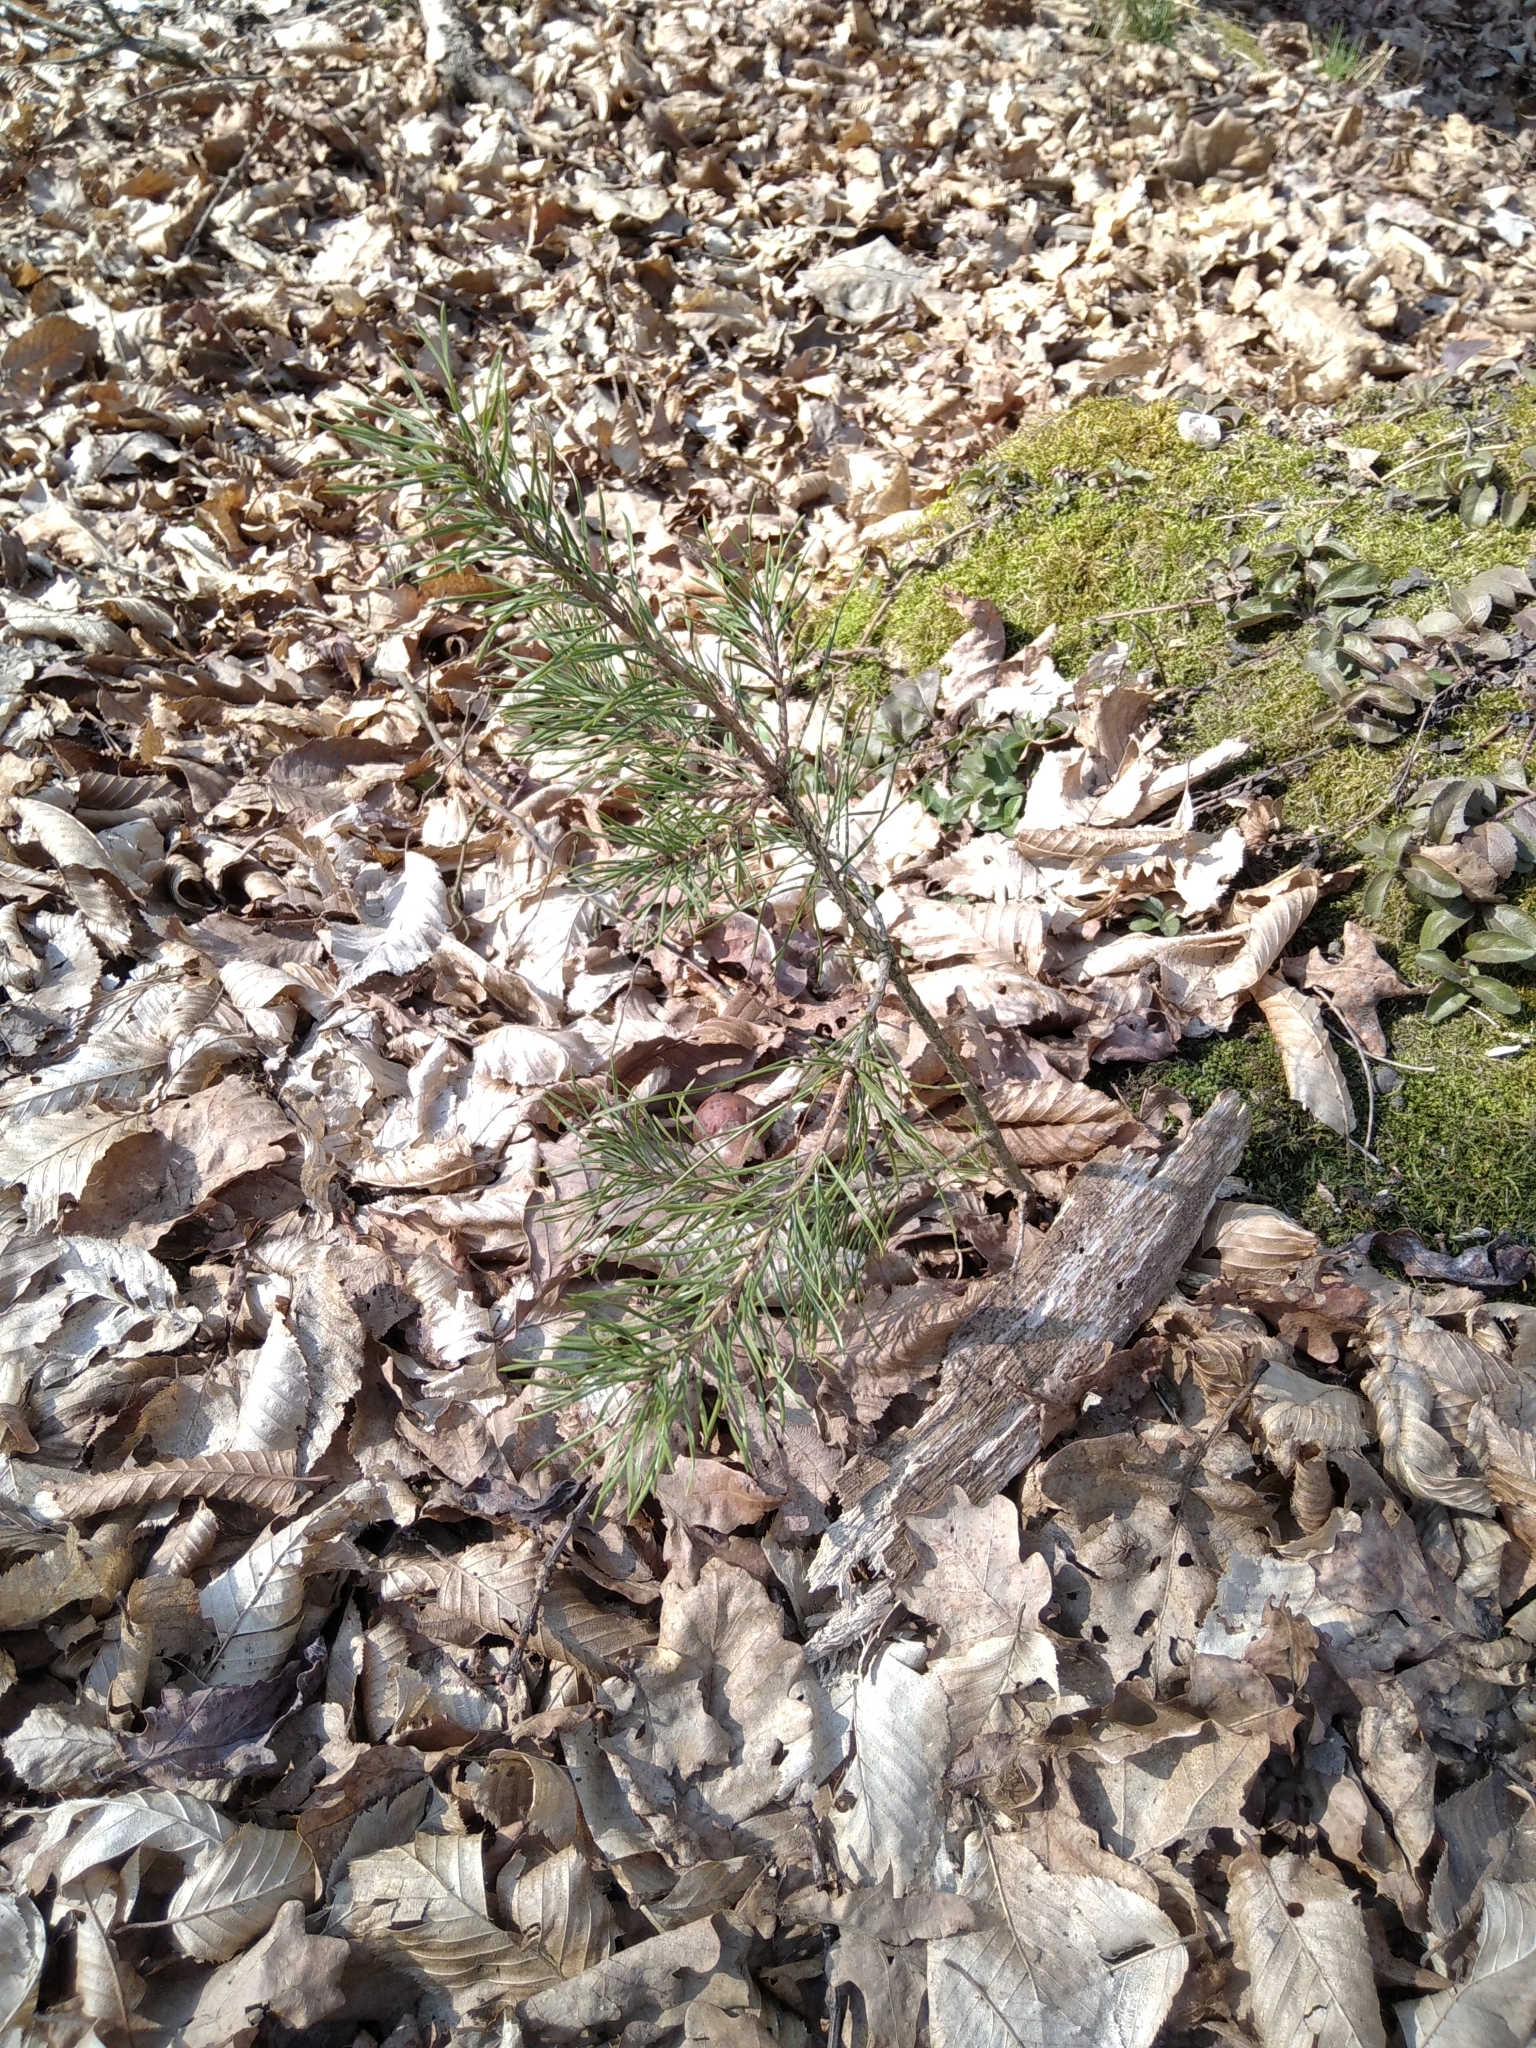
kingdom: Plantae
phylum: Tracheophyta
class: Pinopsida
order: Pinales
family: Pinaceae
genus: Pinus
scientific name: Pinus sylvestris
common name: Scots pine
